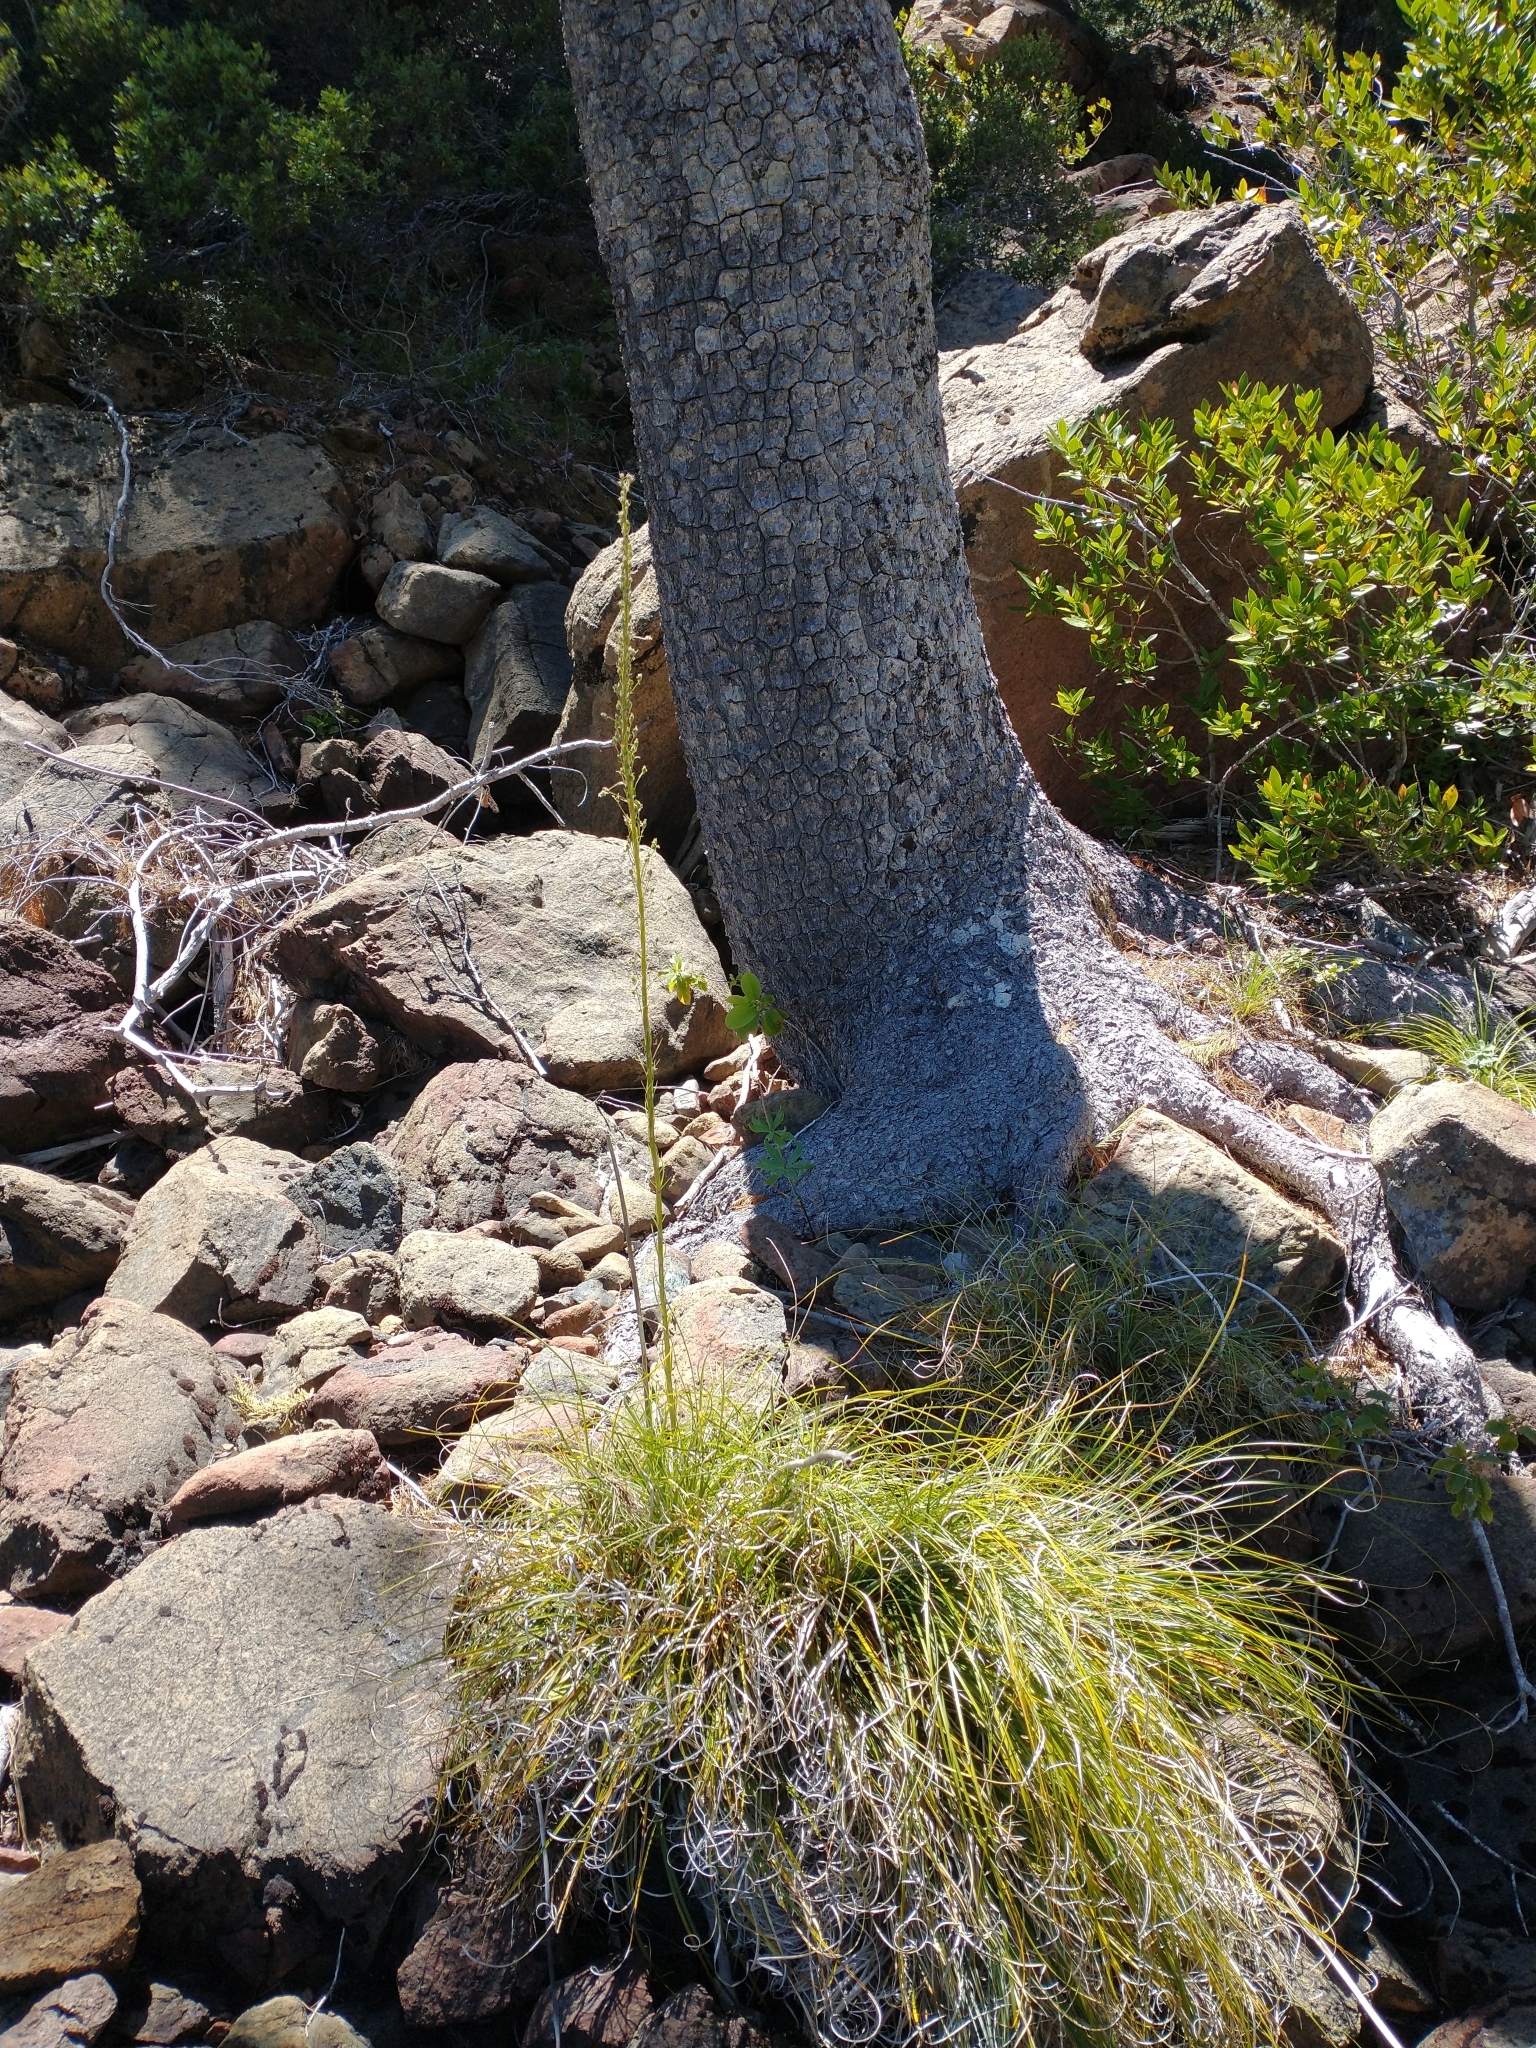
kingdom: Plantae
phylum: Tracheophyta
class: Liliopsida
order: Liliales
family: Melanthiaceae
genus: Xerophyllum
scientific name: Xerophyllum tenax
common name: Bear-grass
